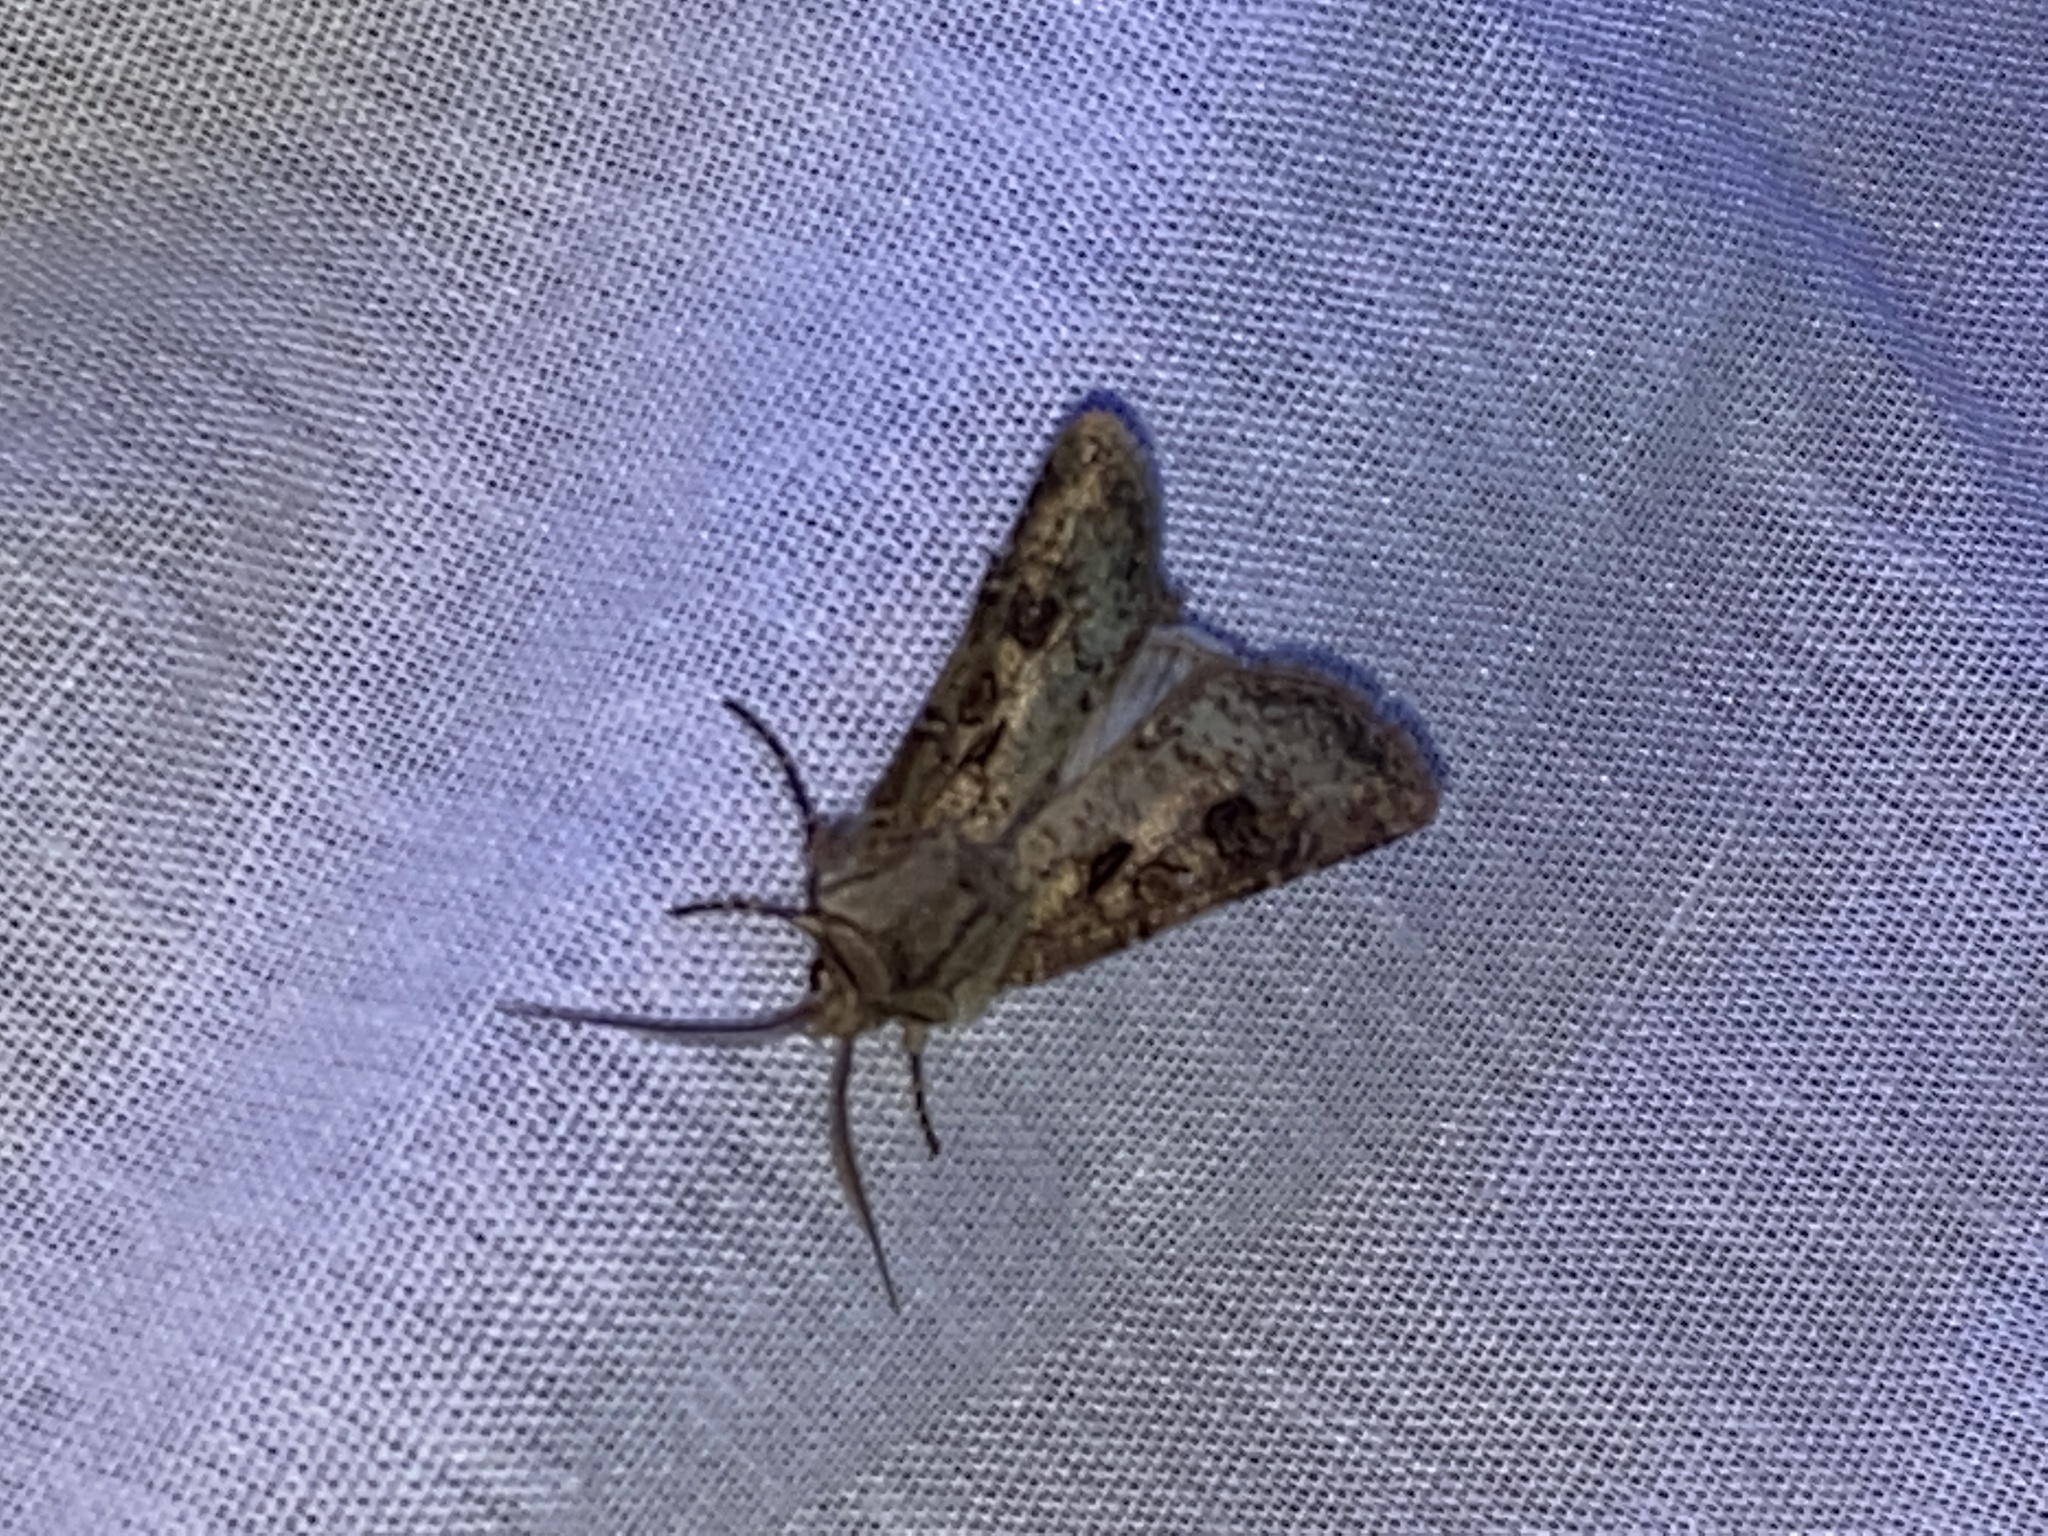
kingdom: Animalia
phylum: Arthropoda
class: Insecta
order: Lepidoptera
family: Noctuidae
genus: Agrotis
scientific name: Agrotis clavis
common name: Heart and club
